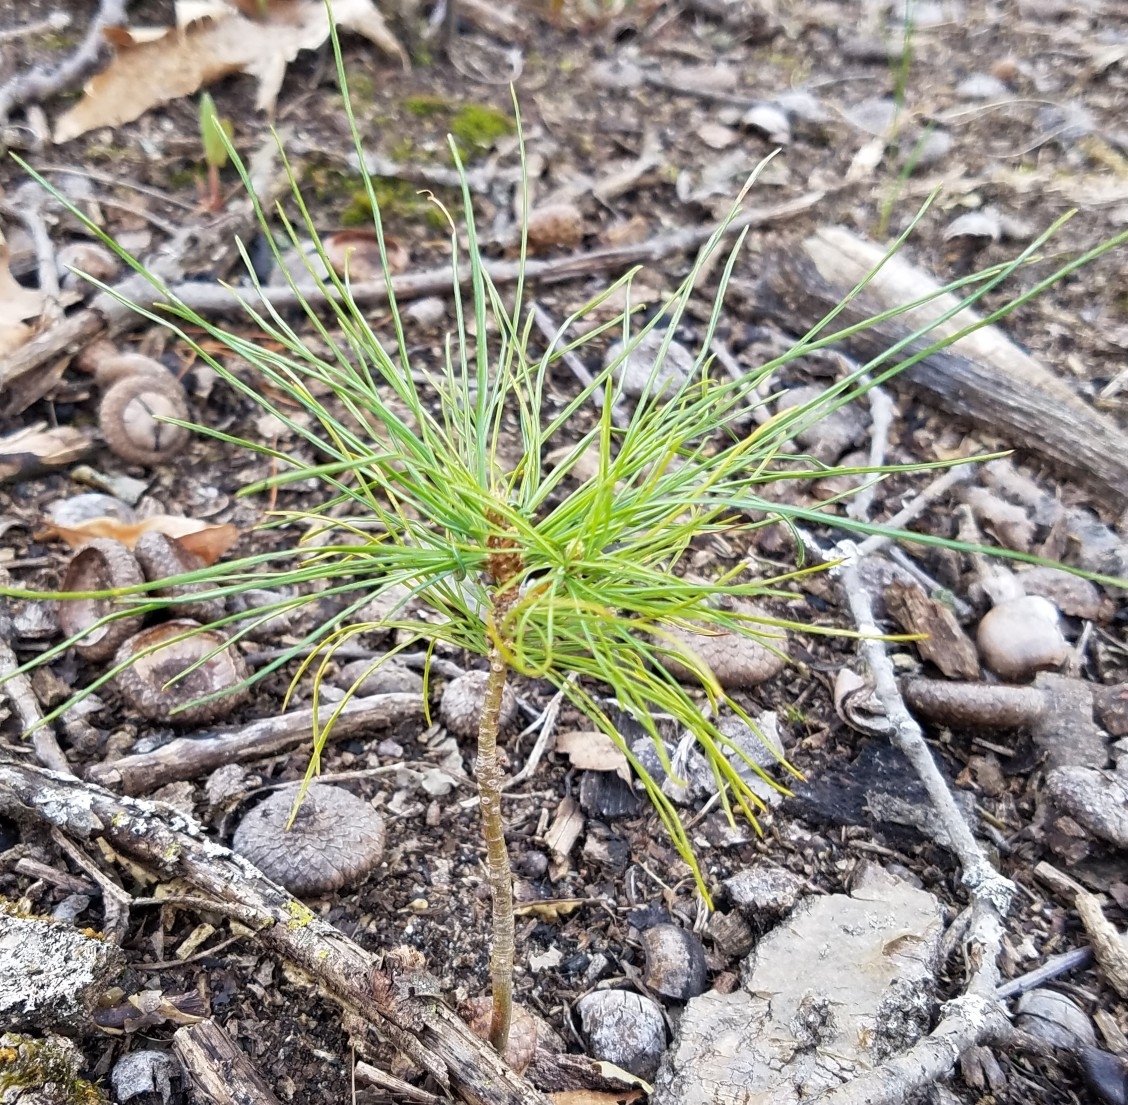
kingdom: Plantae
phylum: Tracheophyta
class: Pinopsida
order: Pinales
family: Pinaceae
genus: Pinus
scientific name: Pinus strobus
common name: Weymouth pine
